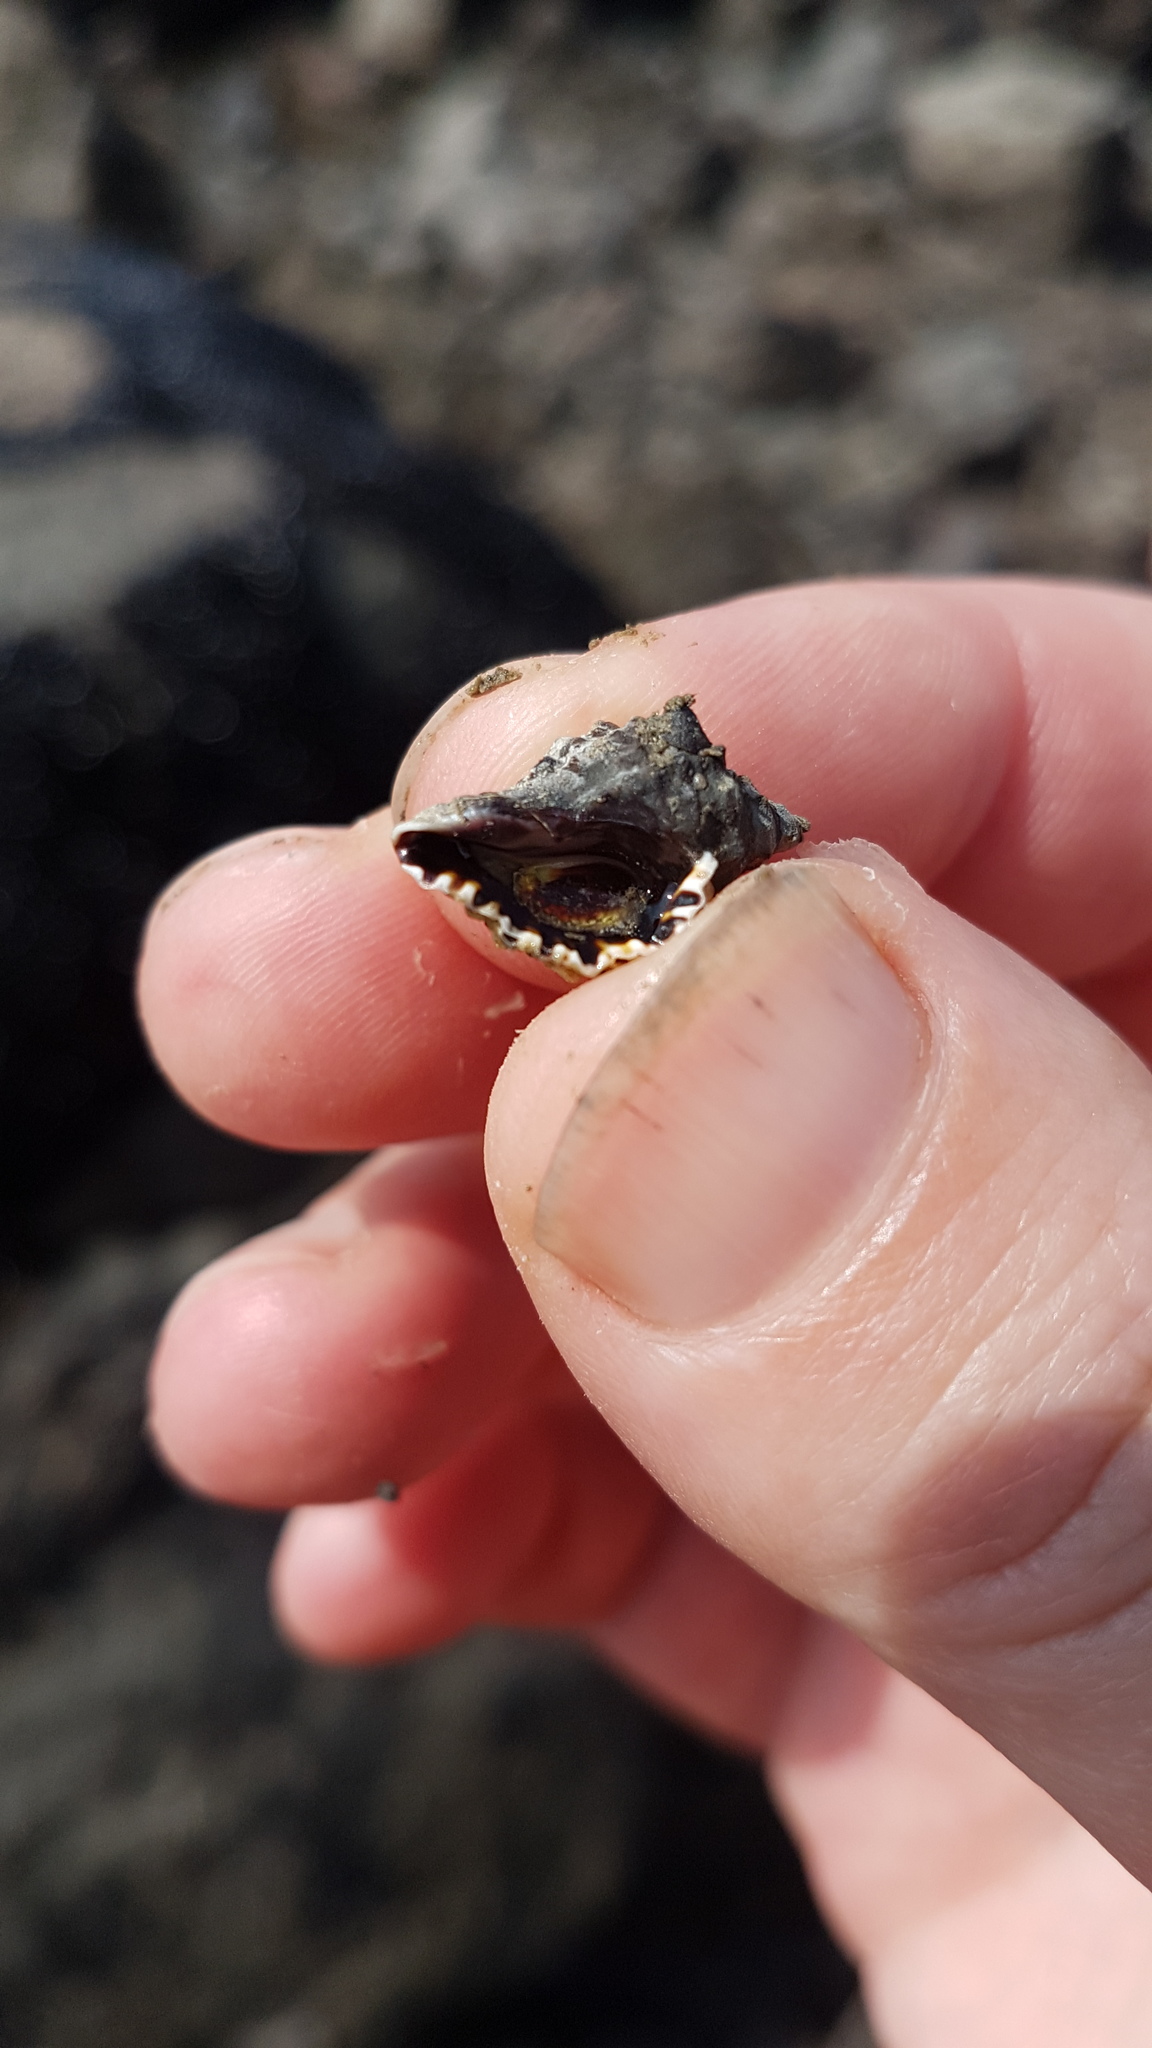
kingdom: Animalia
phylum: Mollusca
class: Gastropoda
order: Neogastropoda
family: Muricidae
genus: Haustrum
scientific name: Haustrum scobina
